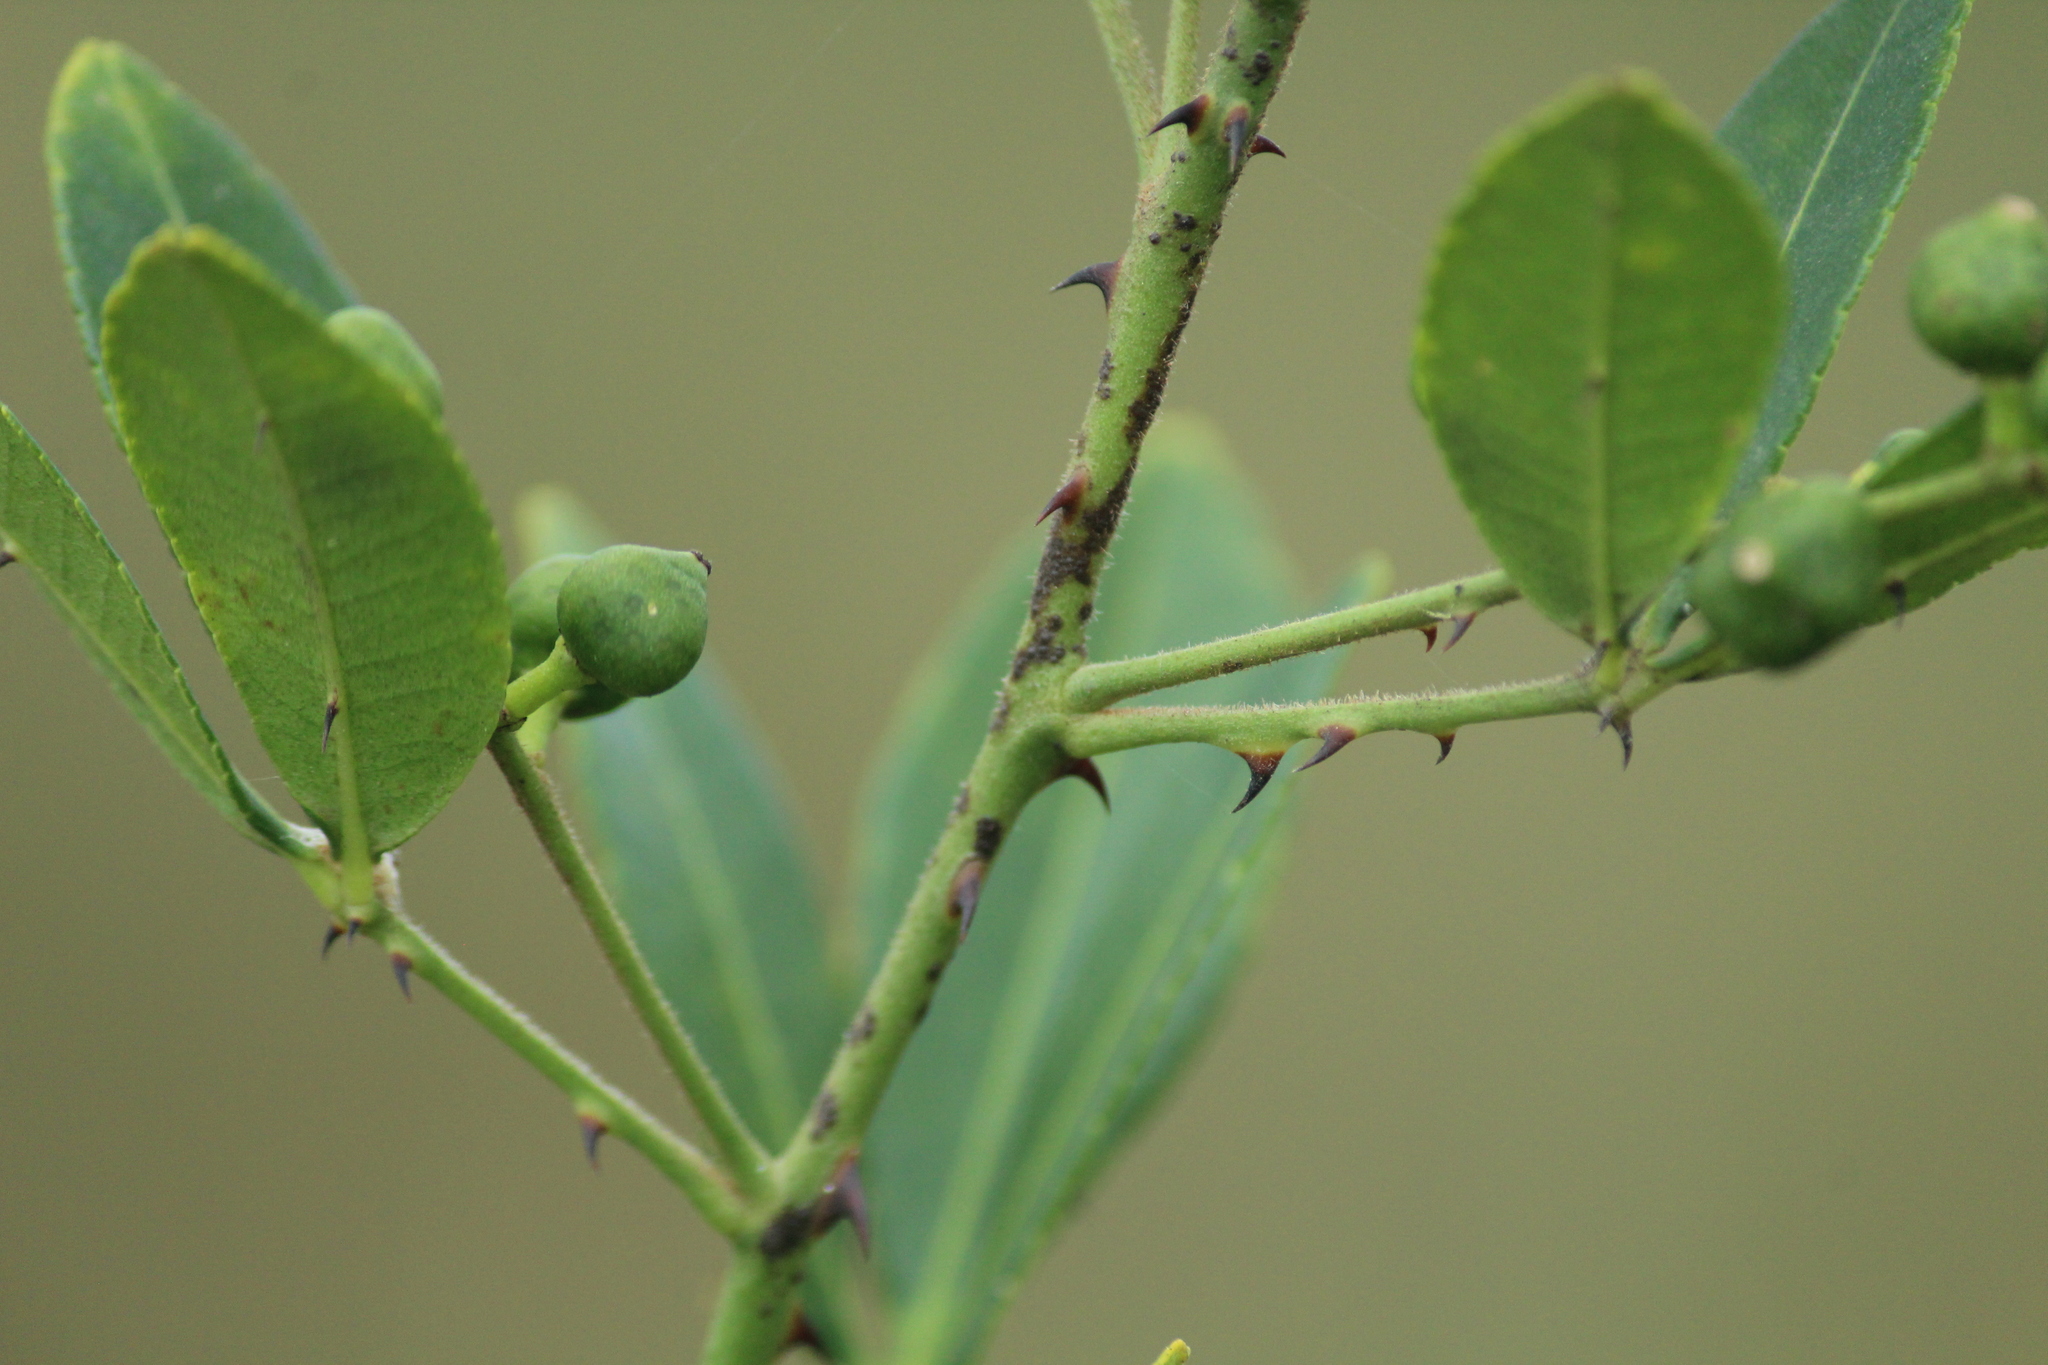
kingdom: Plantae
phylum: Tracheophyta
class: Magnoliopsida
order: Sapindales
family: Rutaceae
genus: Zanthoxylum
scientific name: Zanthoxylum asiaticum
